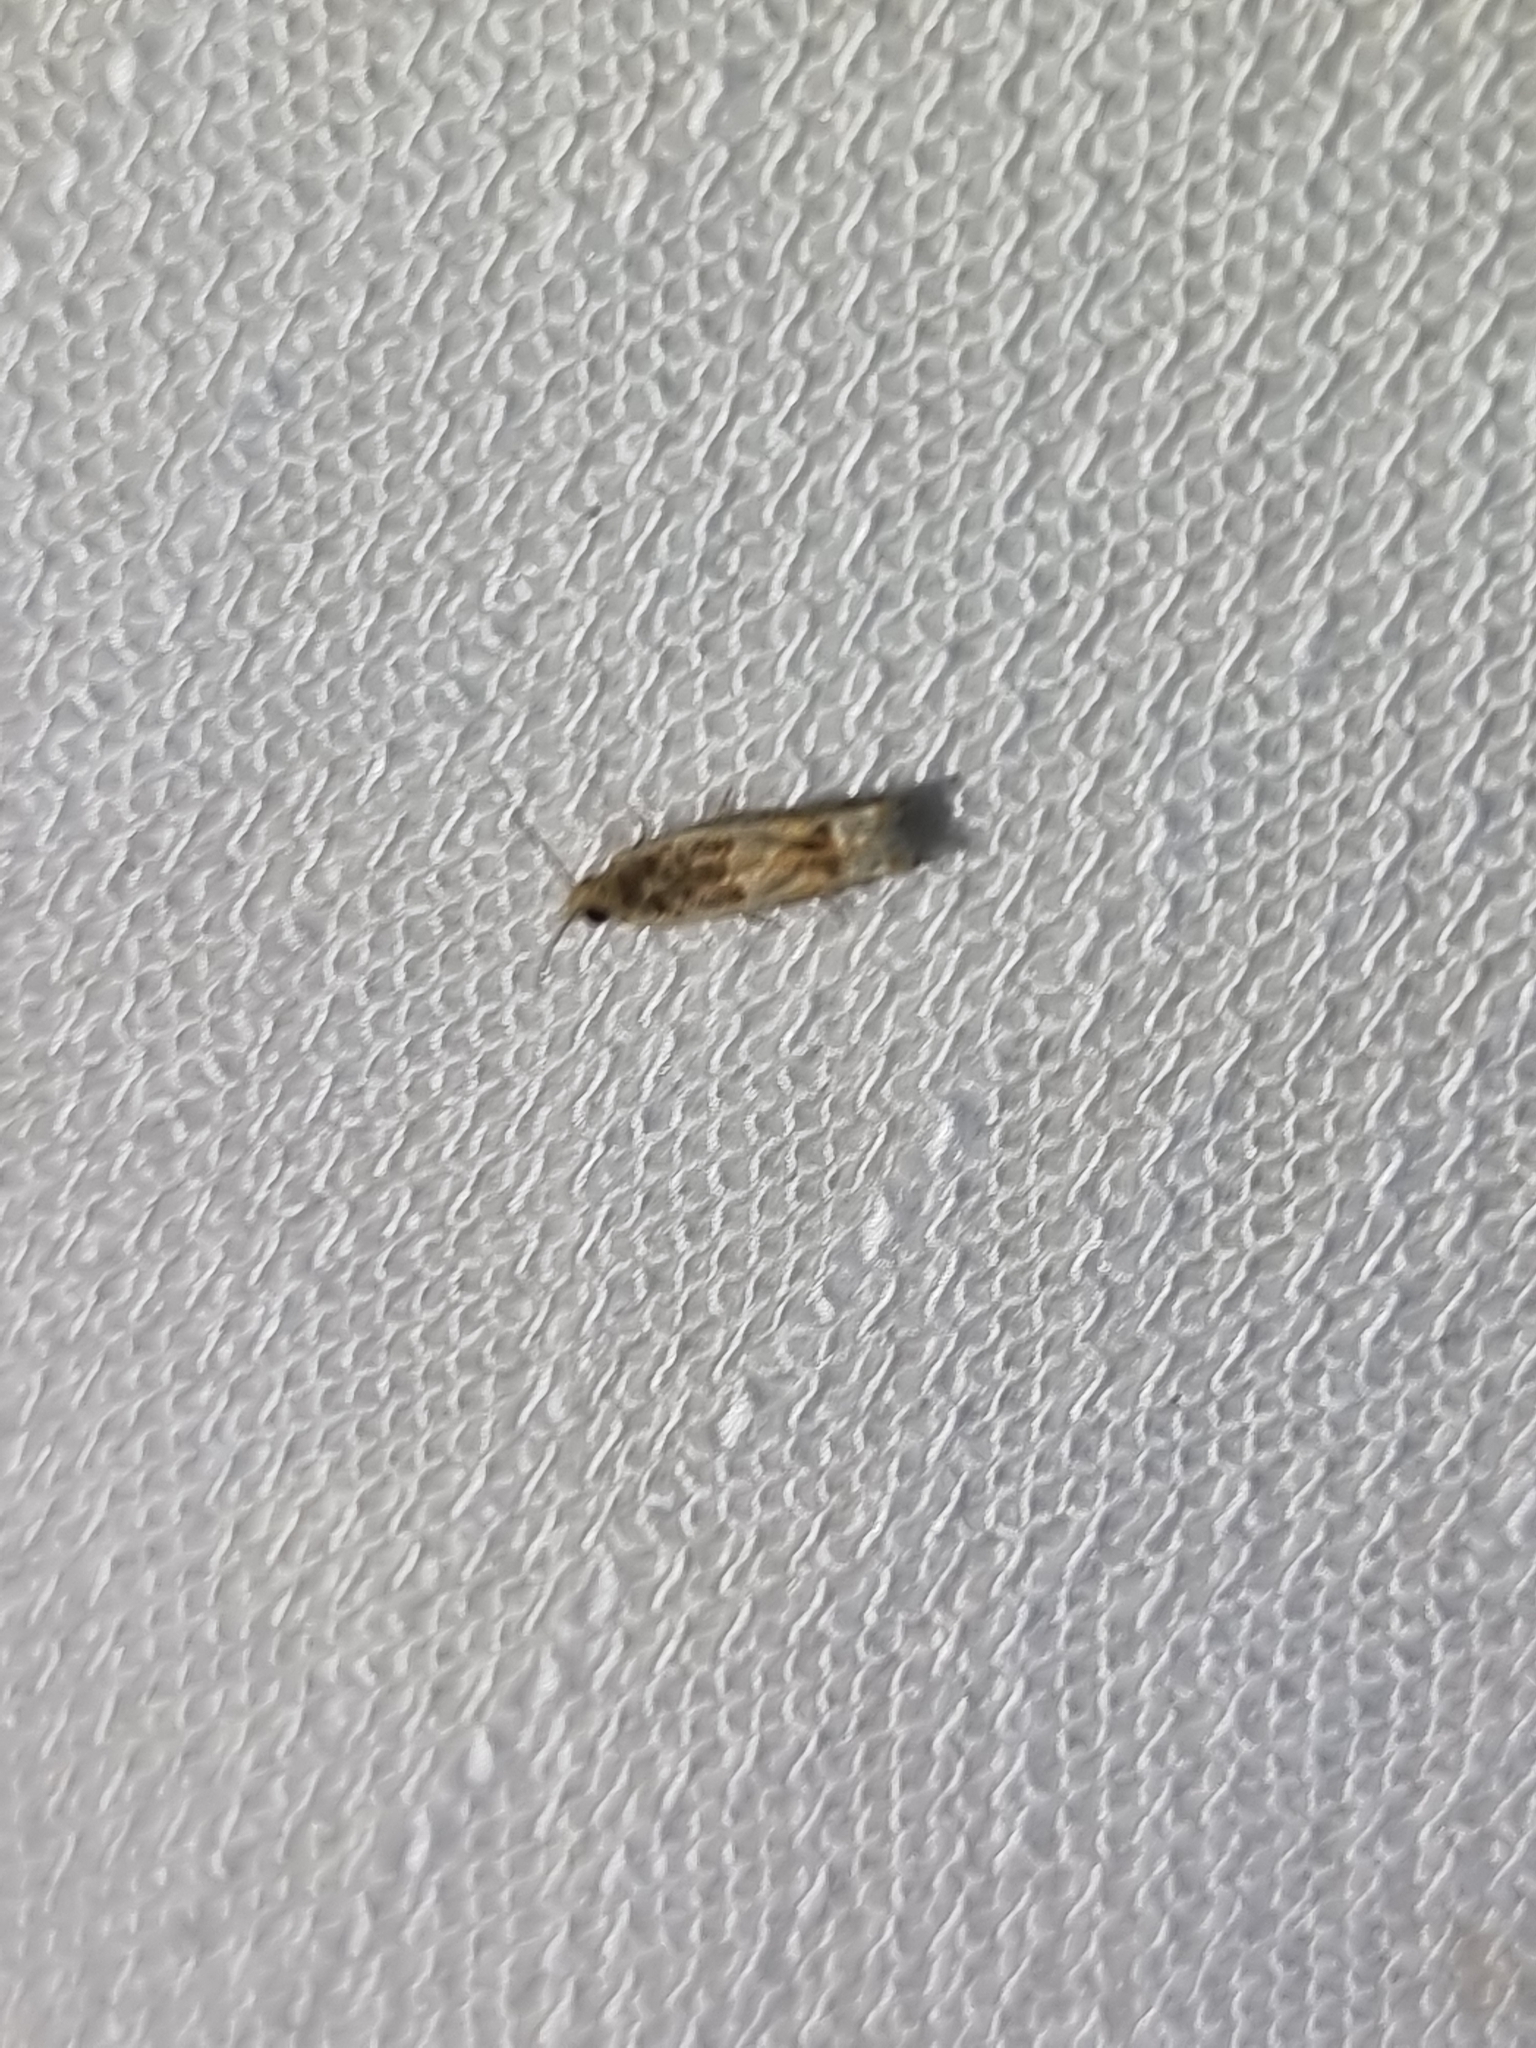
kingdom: Animalia
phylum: Arthropoda
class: Insecta
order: Lepidoptera
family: Tortricidae
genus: Crocidosema
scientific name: Crocidosema plebejana
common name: Southern bell
